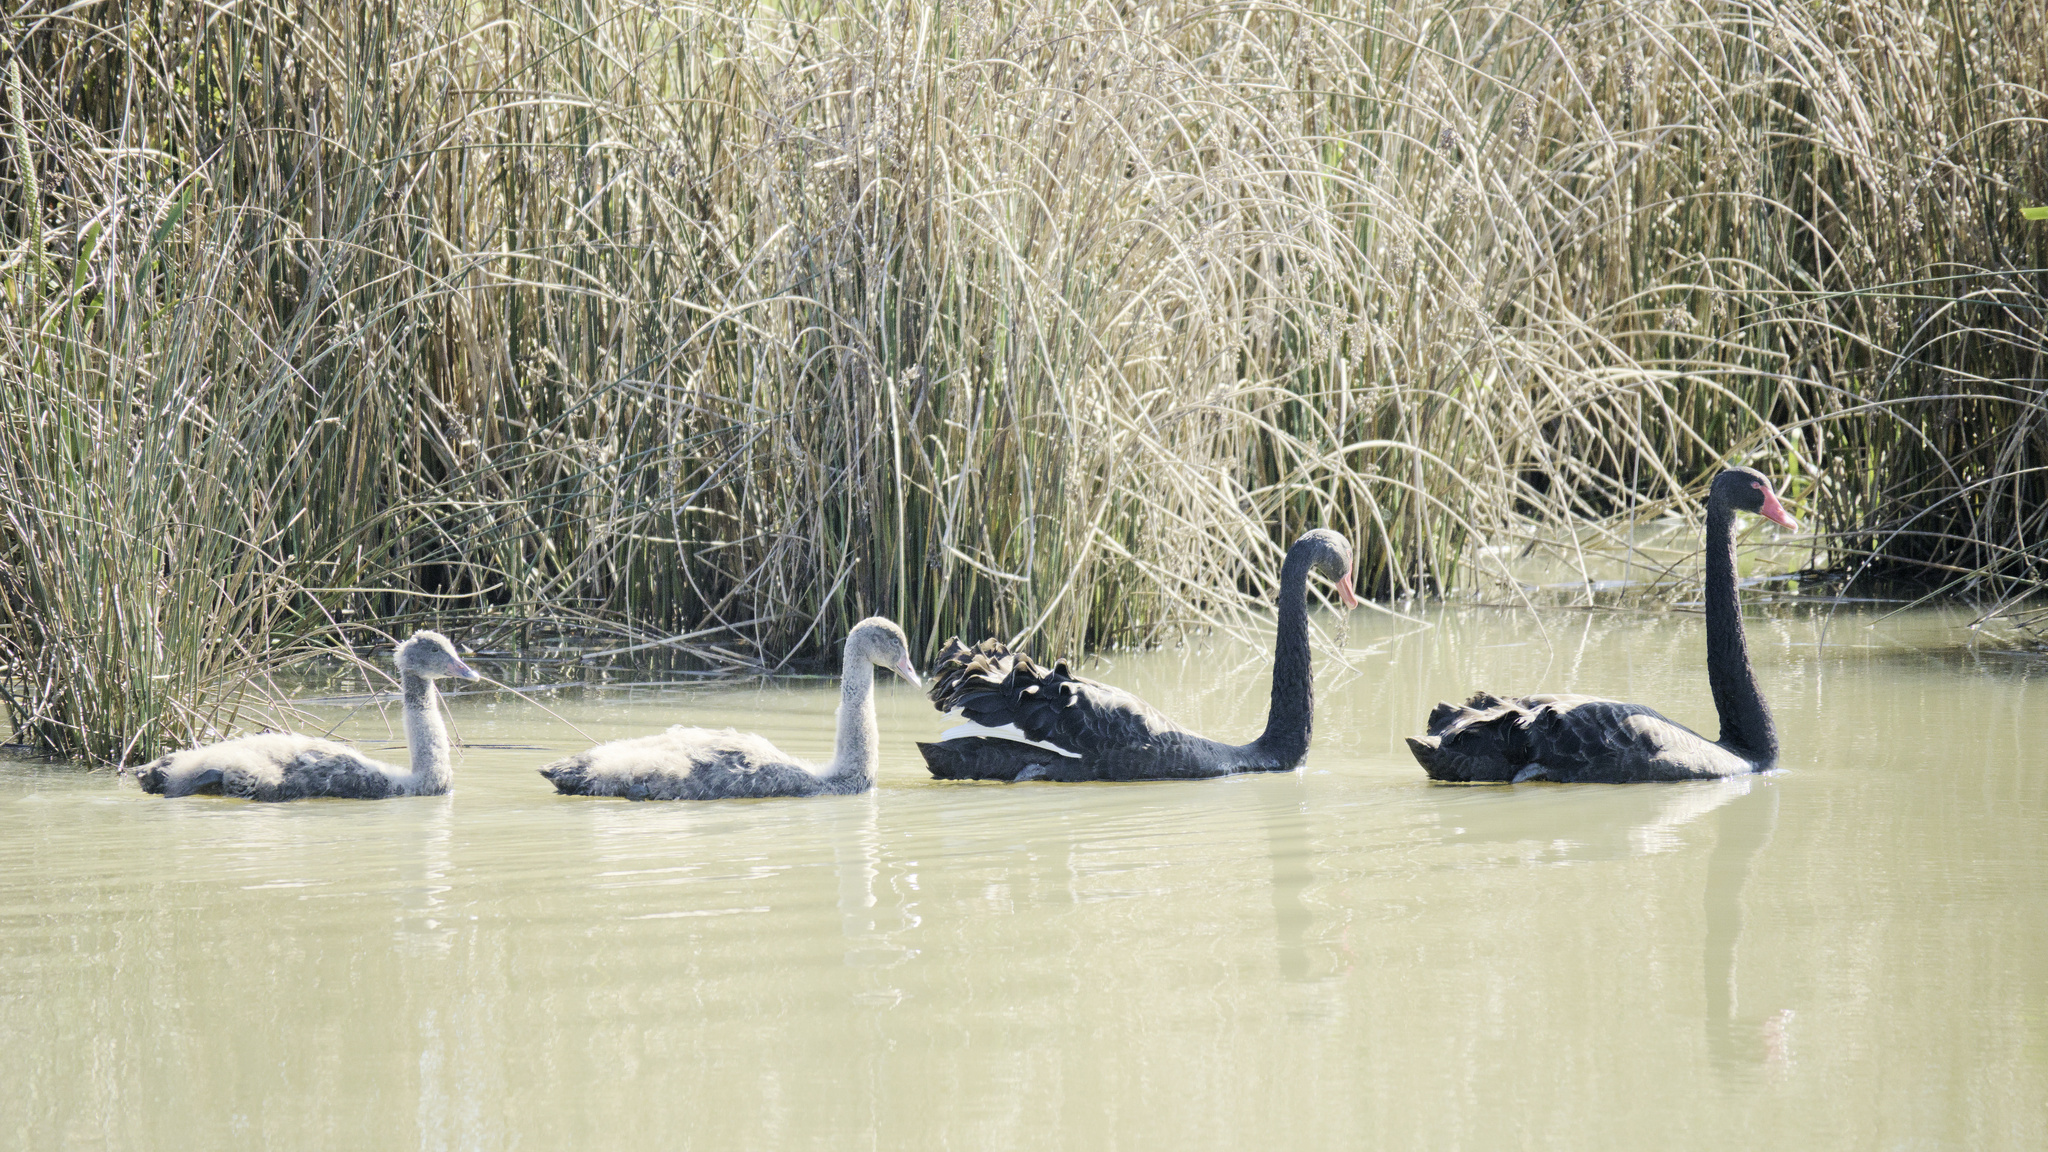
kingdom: Animalia
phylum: Chordata
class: Aves
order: Anseriformes
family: Anatidae
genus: Cygnus
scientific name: Cygnus atratus
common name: Black swan
